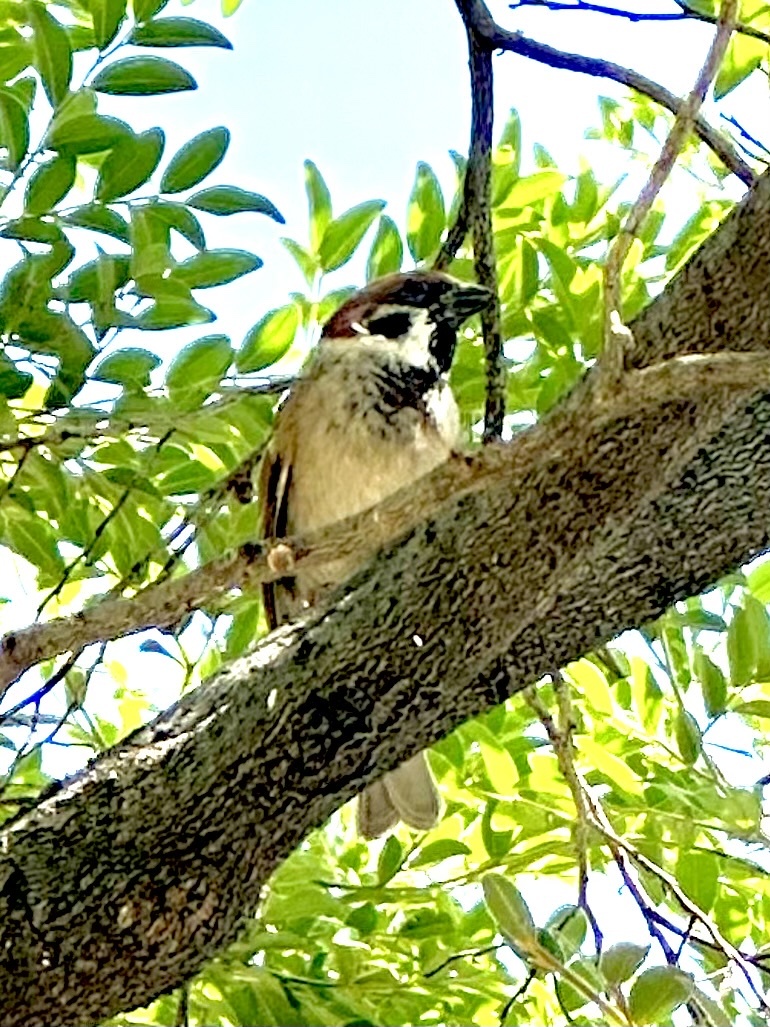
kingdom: Animalia
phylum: Chordata
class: Aves
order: Passeriformes
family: Passeridae
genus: Passer
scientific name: Passer montanus
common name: Eurasian tree sparrow
